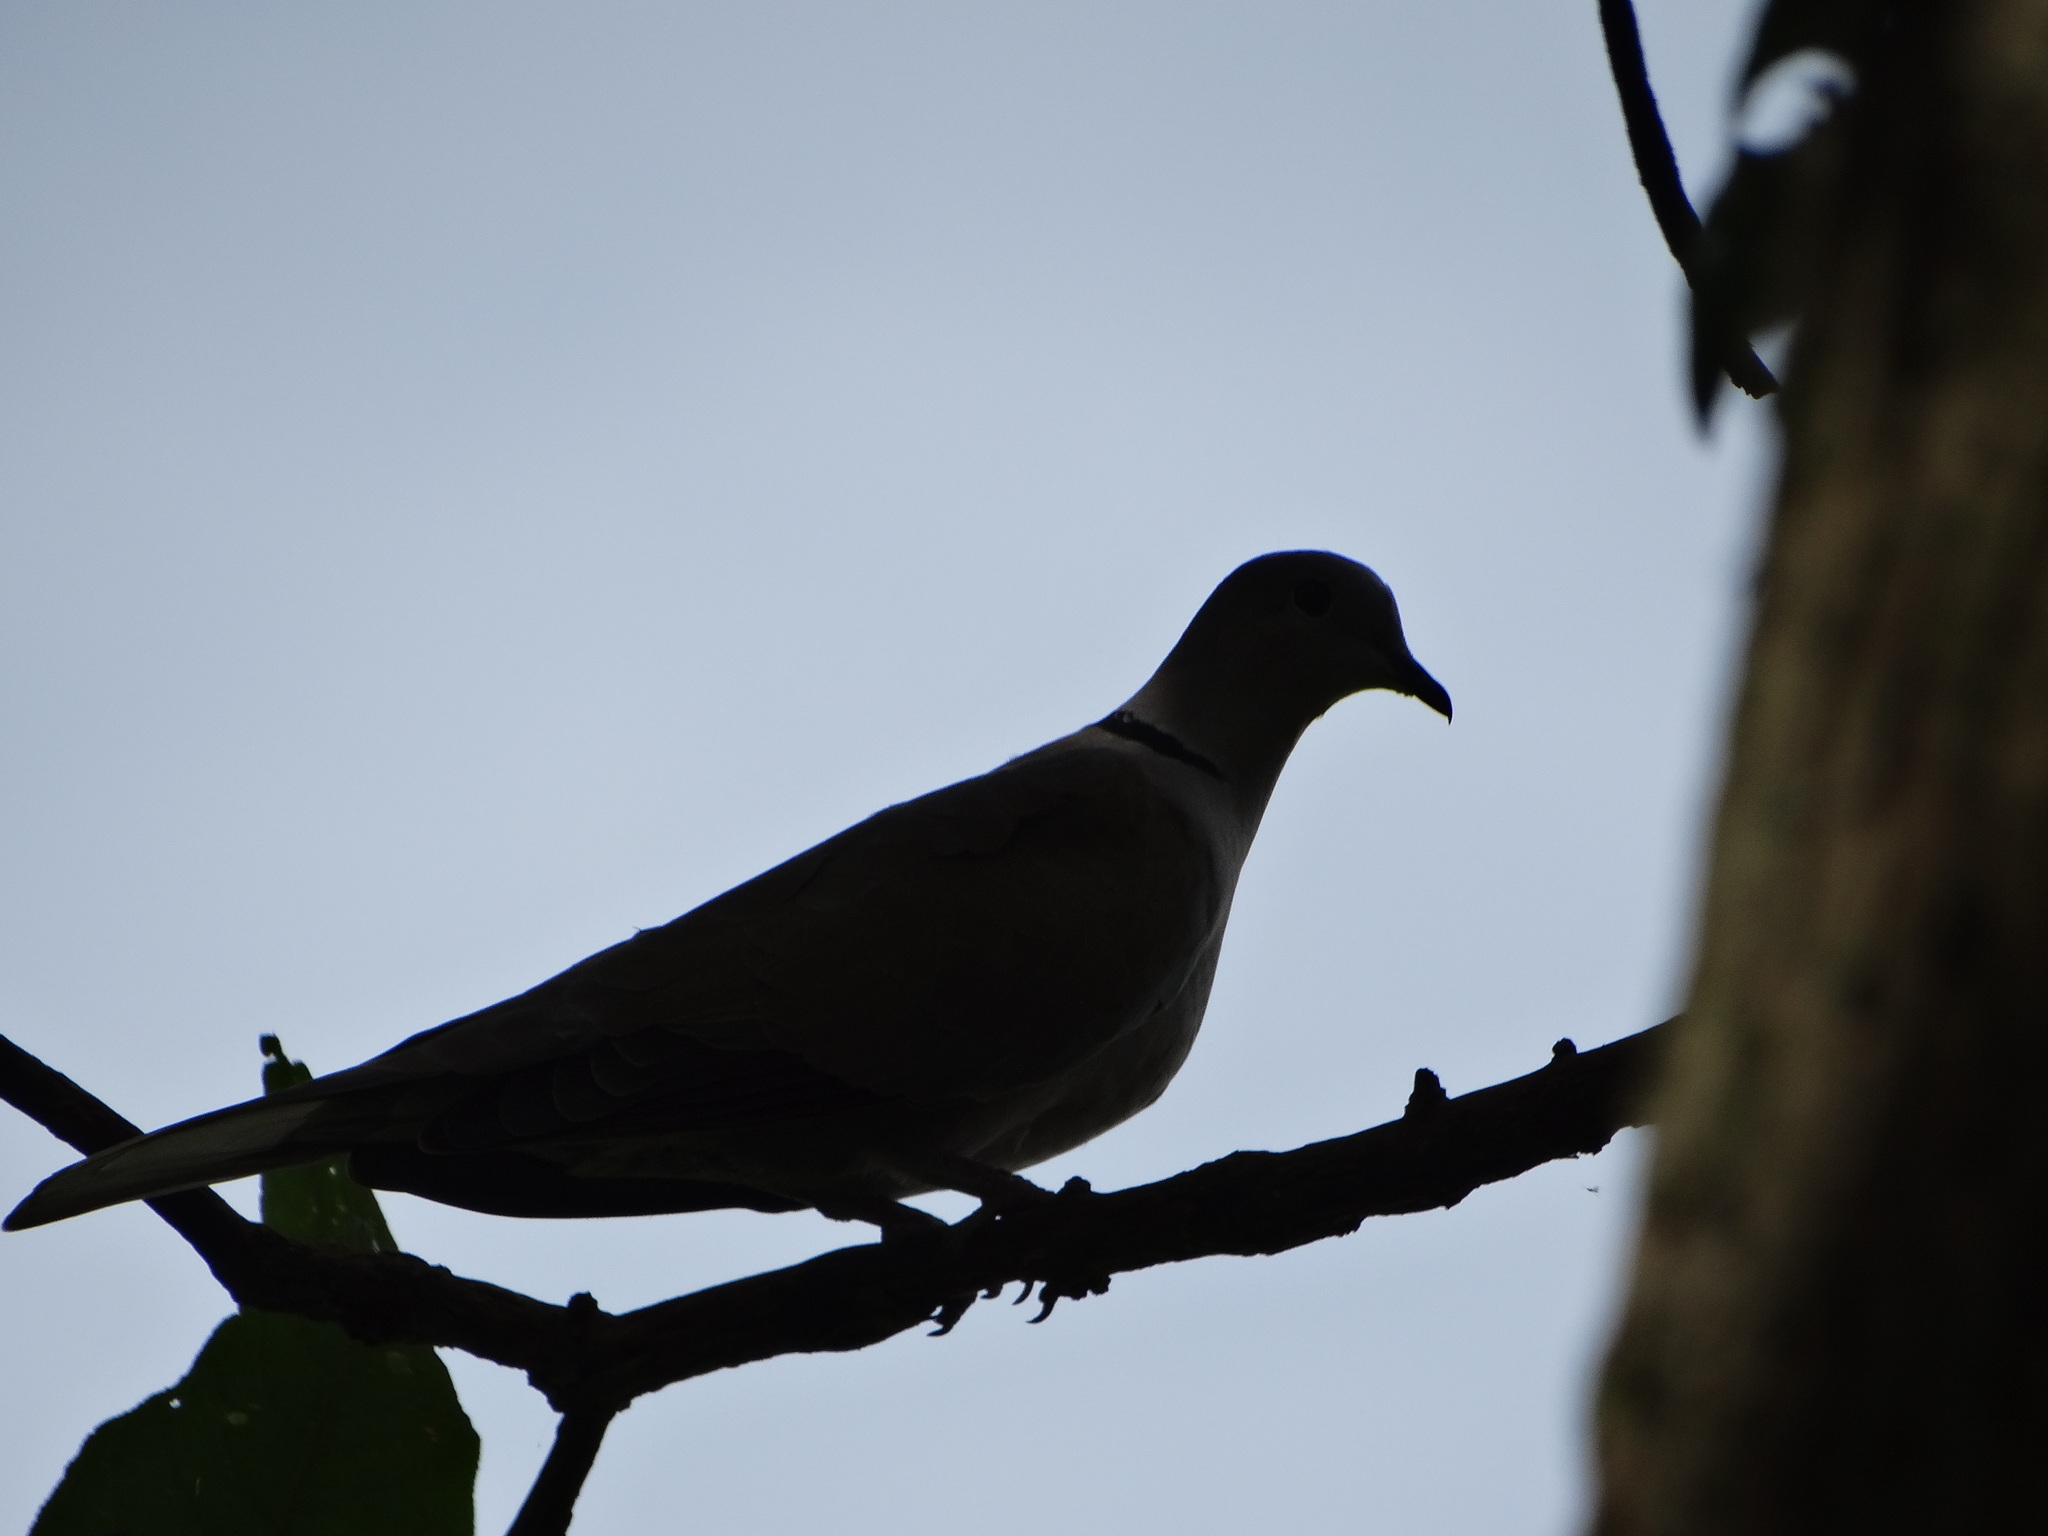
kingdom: Animalia
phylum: Chordata
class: Aves
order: Columbiformes
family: Columbidae
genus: Streptopelia
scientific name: Streptopelia decaocto
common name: Eurasian collared dove
